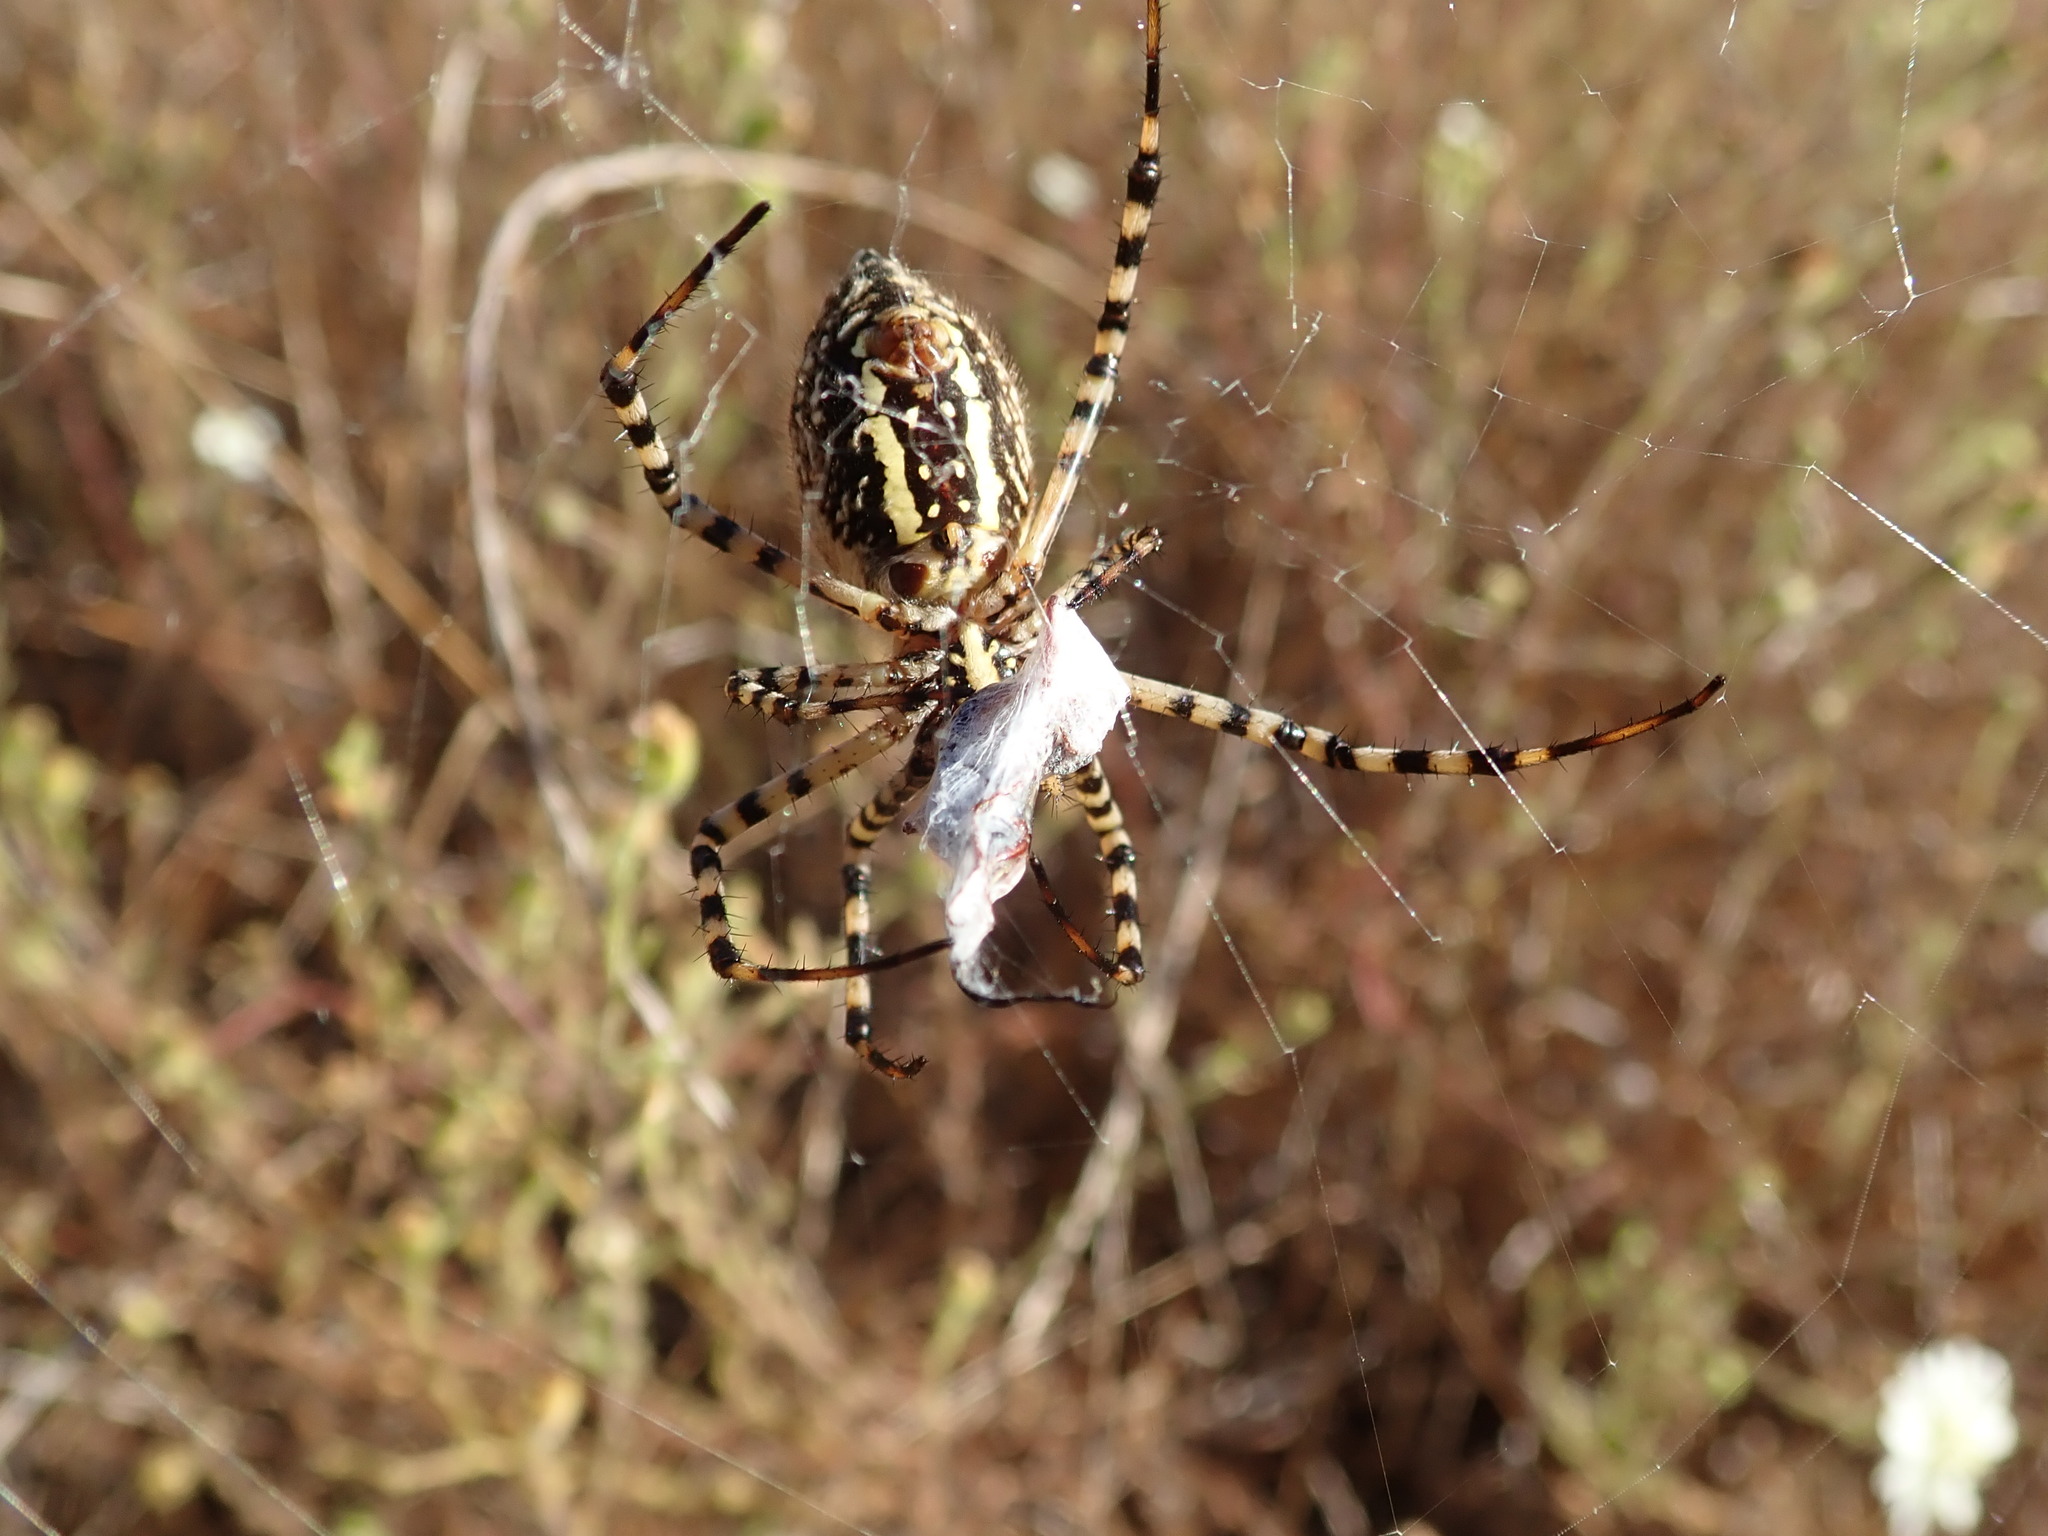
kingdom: Animalia
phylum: Arthropoda
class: Arachnida
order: Araneae
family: Araneidae
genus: Argiope
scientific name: Argiope trifasciata
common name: Banded garden spider
